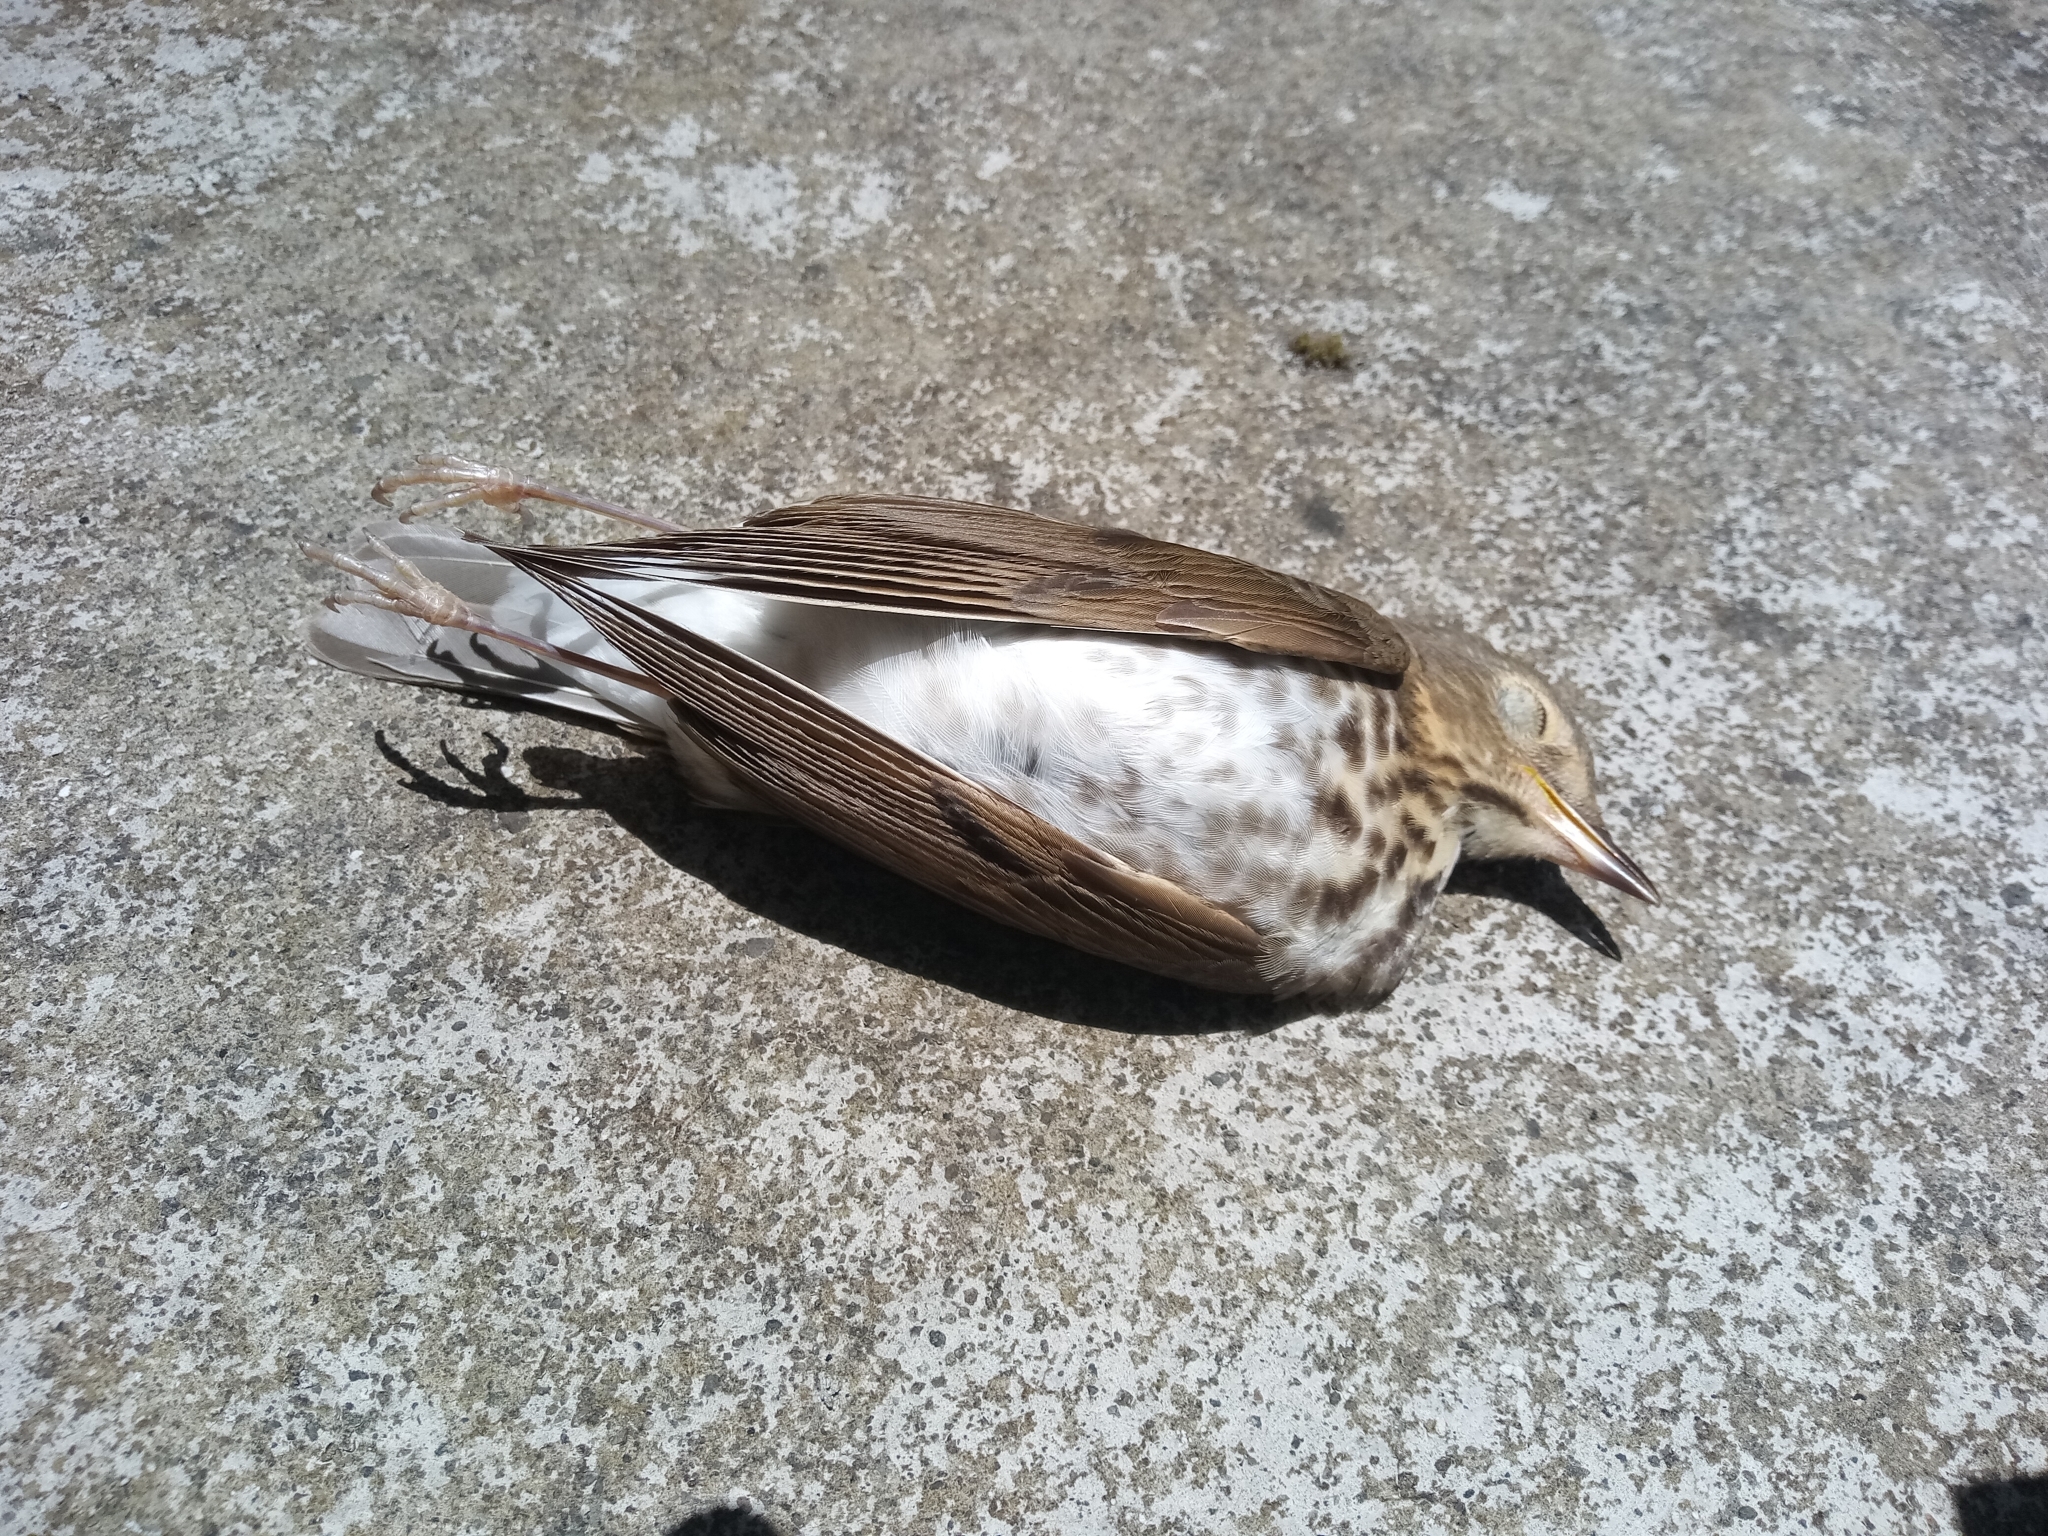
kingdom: Animalia
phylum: Chordata
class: Aves
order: Passeriformes
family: Turdidae
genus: Catharus
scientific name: Catharus ustulatus
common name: Swainson's thrush
